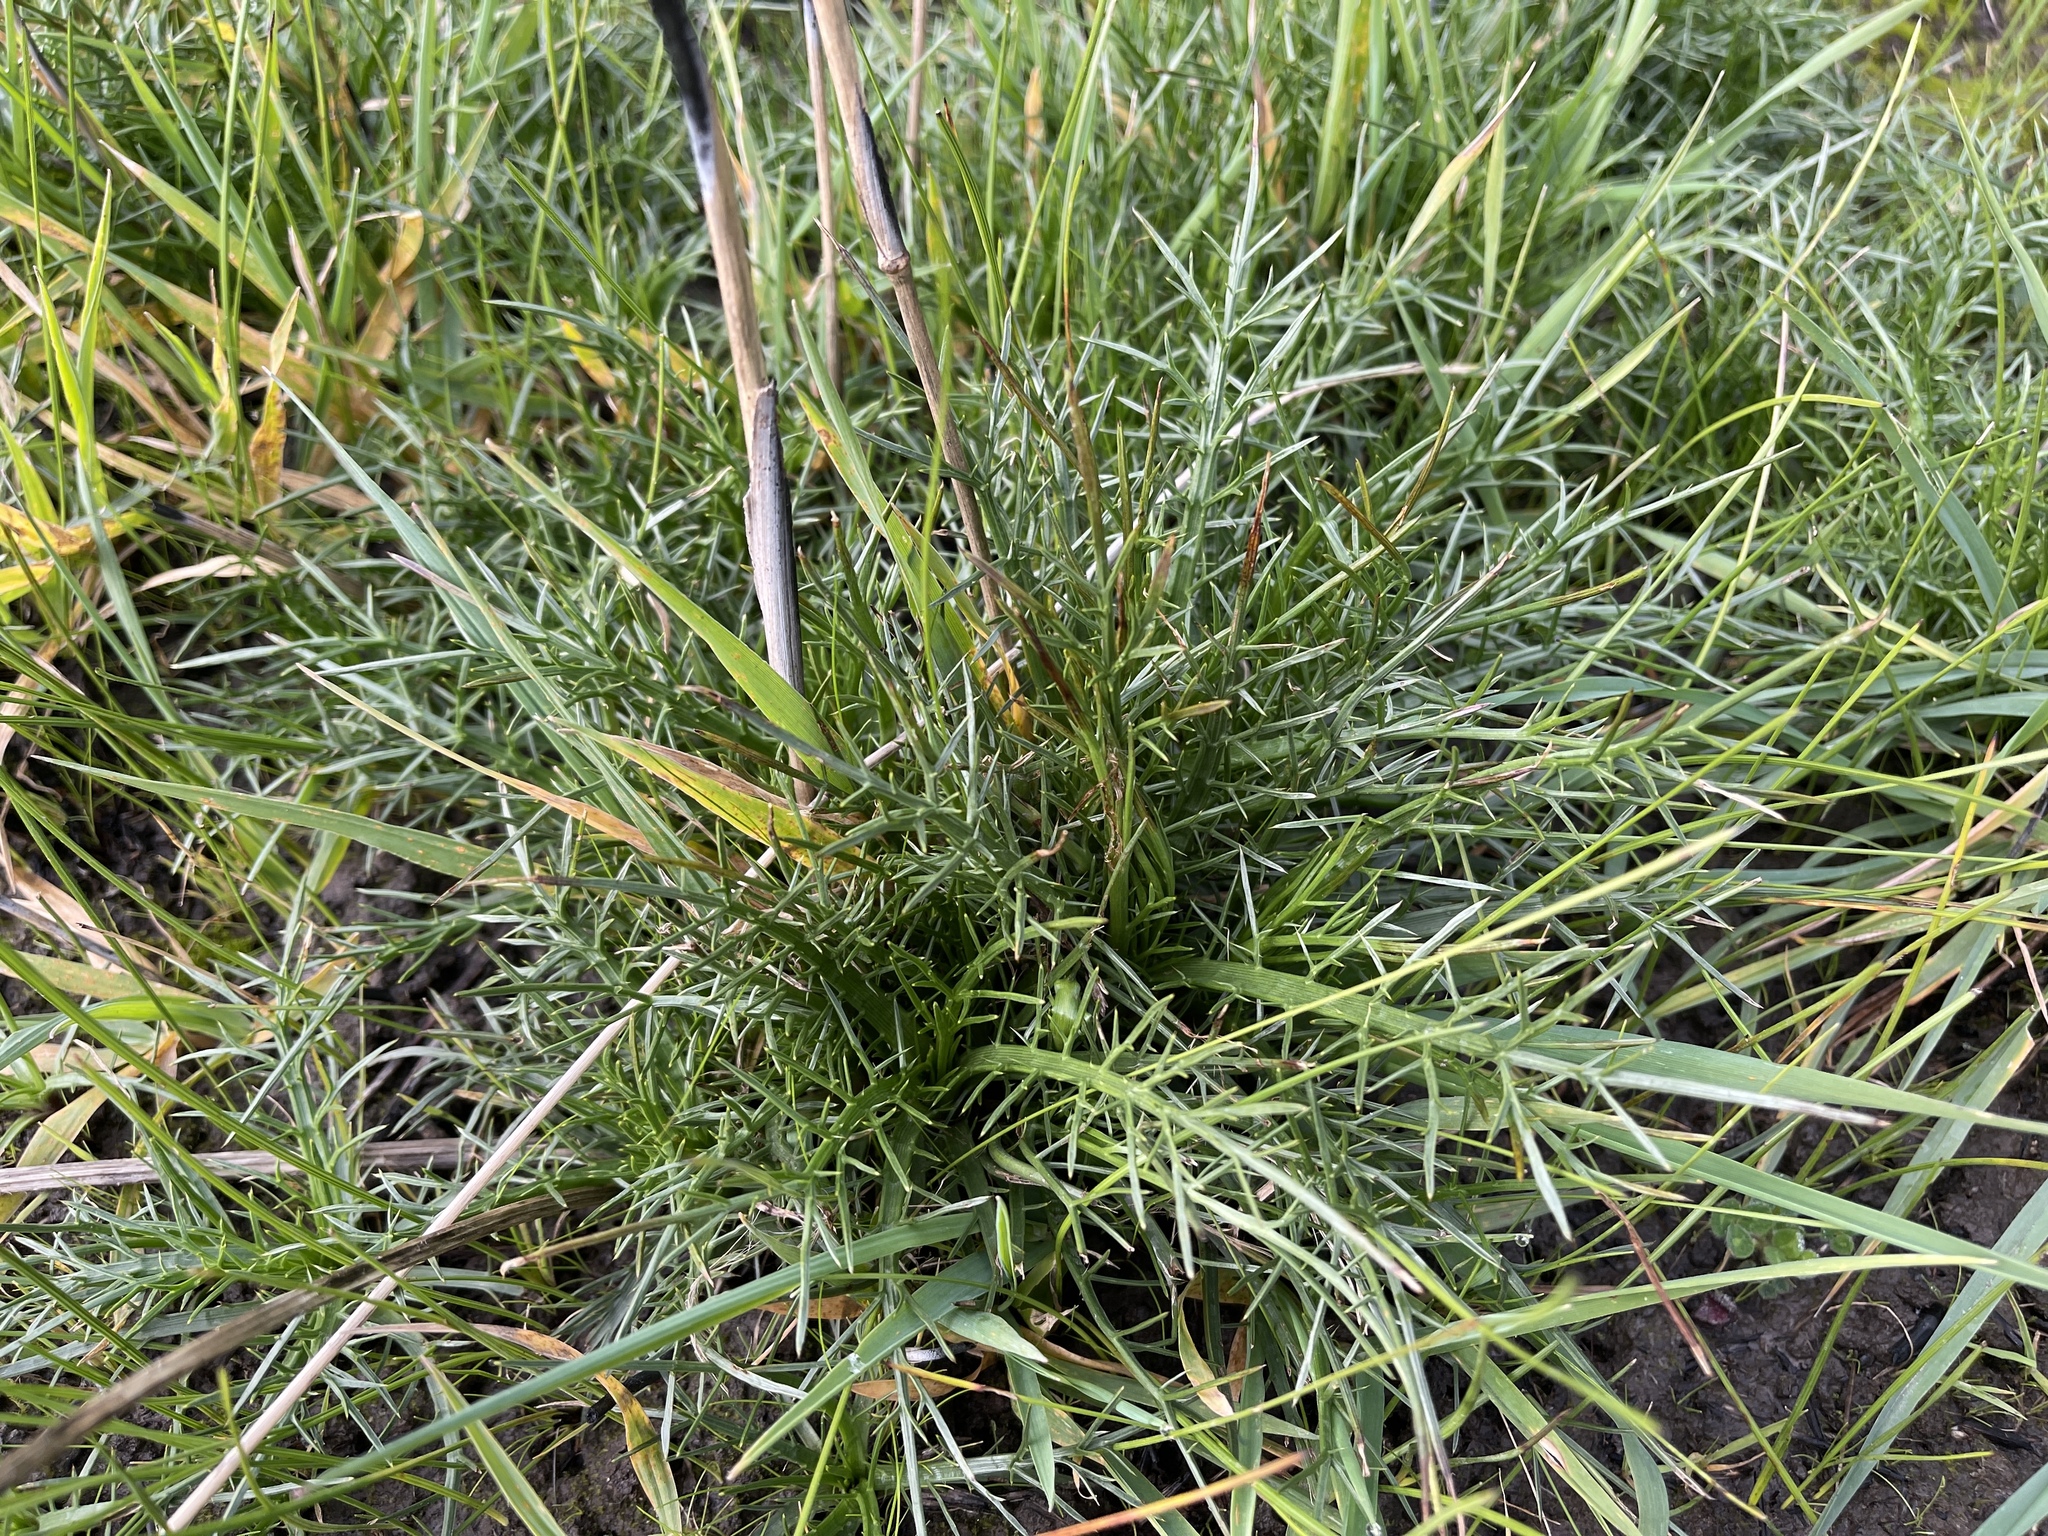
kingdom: Plantae
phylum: Tracheophyta
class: Magnoliopsida
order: Apiales
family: Apiaceae
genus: Eryngium
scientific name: Eryngium ovinum
